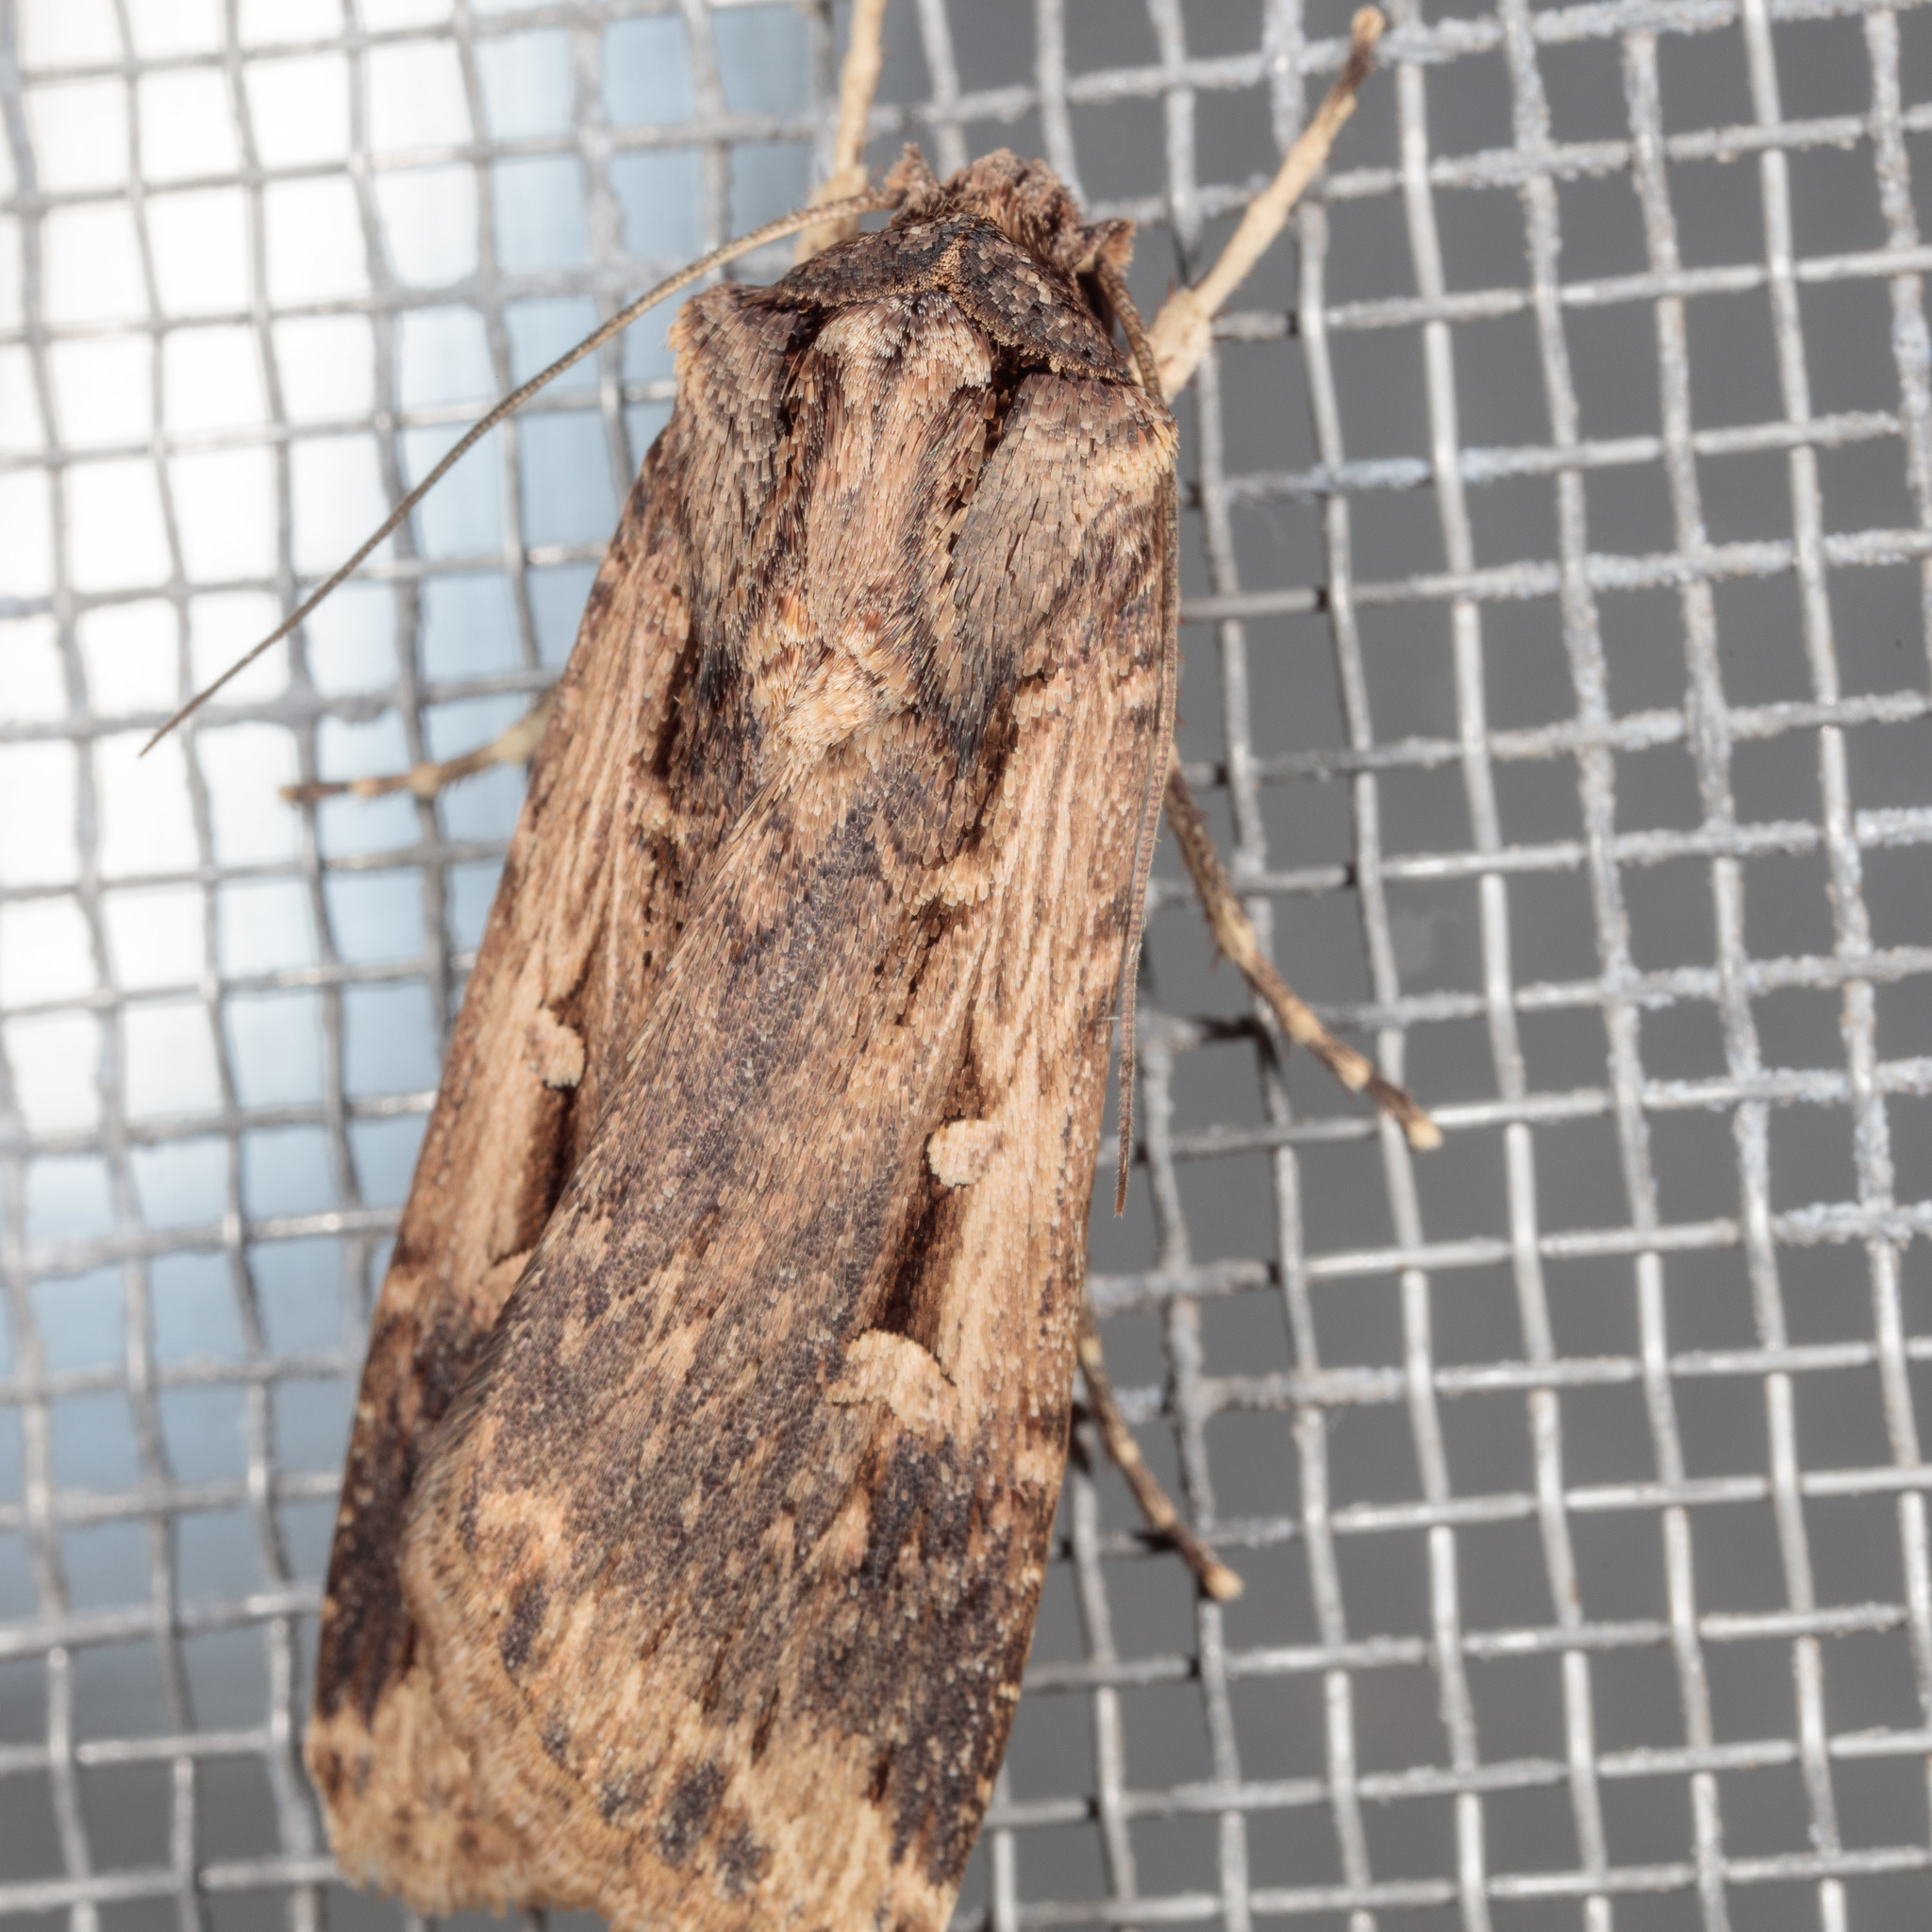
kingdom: Animalia
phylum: Arthropoda
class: Insecta
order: Lepidoptera
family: Noctuidae
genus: Feltia
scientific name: Feltia subterranea
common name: Granulate cutworm
